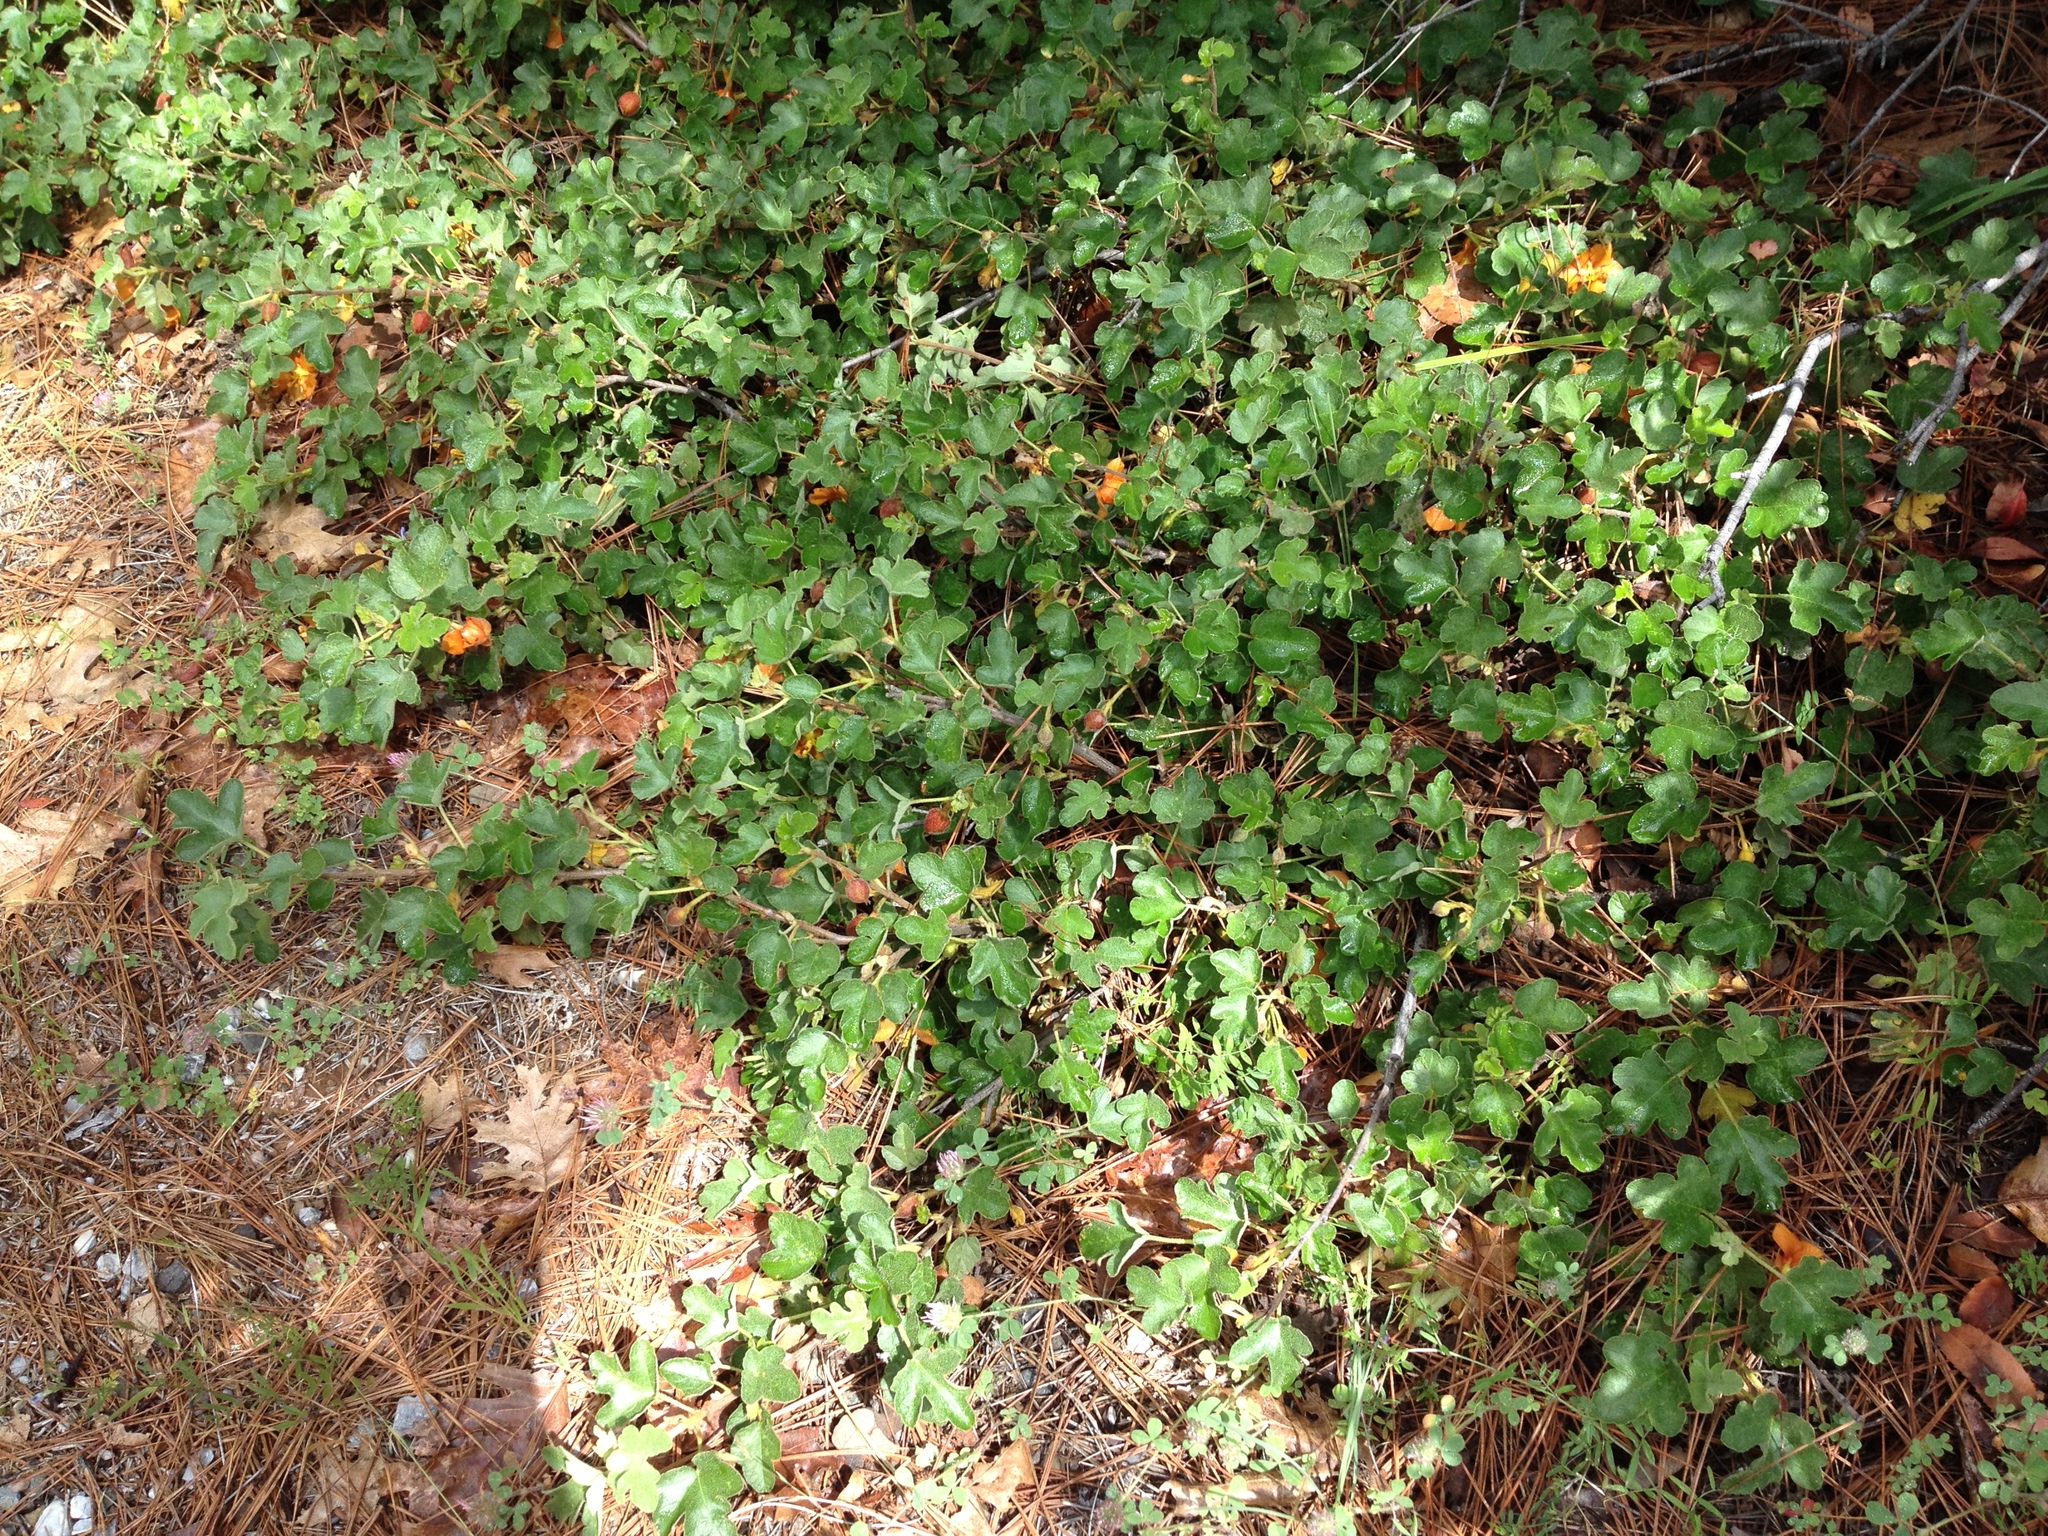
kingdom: Plantae
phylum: Tracheophyta
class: Magnoliopsida
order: Malvales
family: Malvaceae
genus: Fremontodendron
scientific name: Fremontodendron decumbens
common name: Pine hill flannelbush
